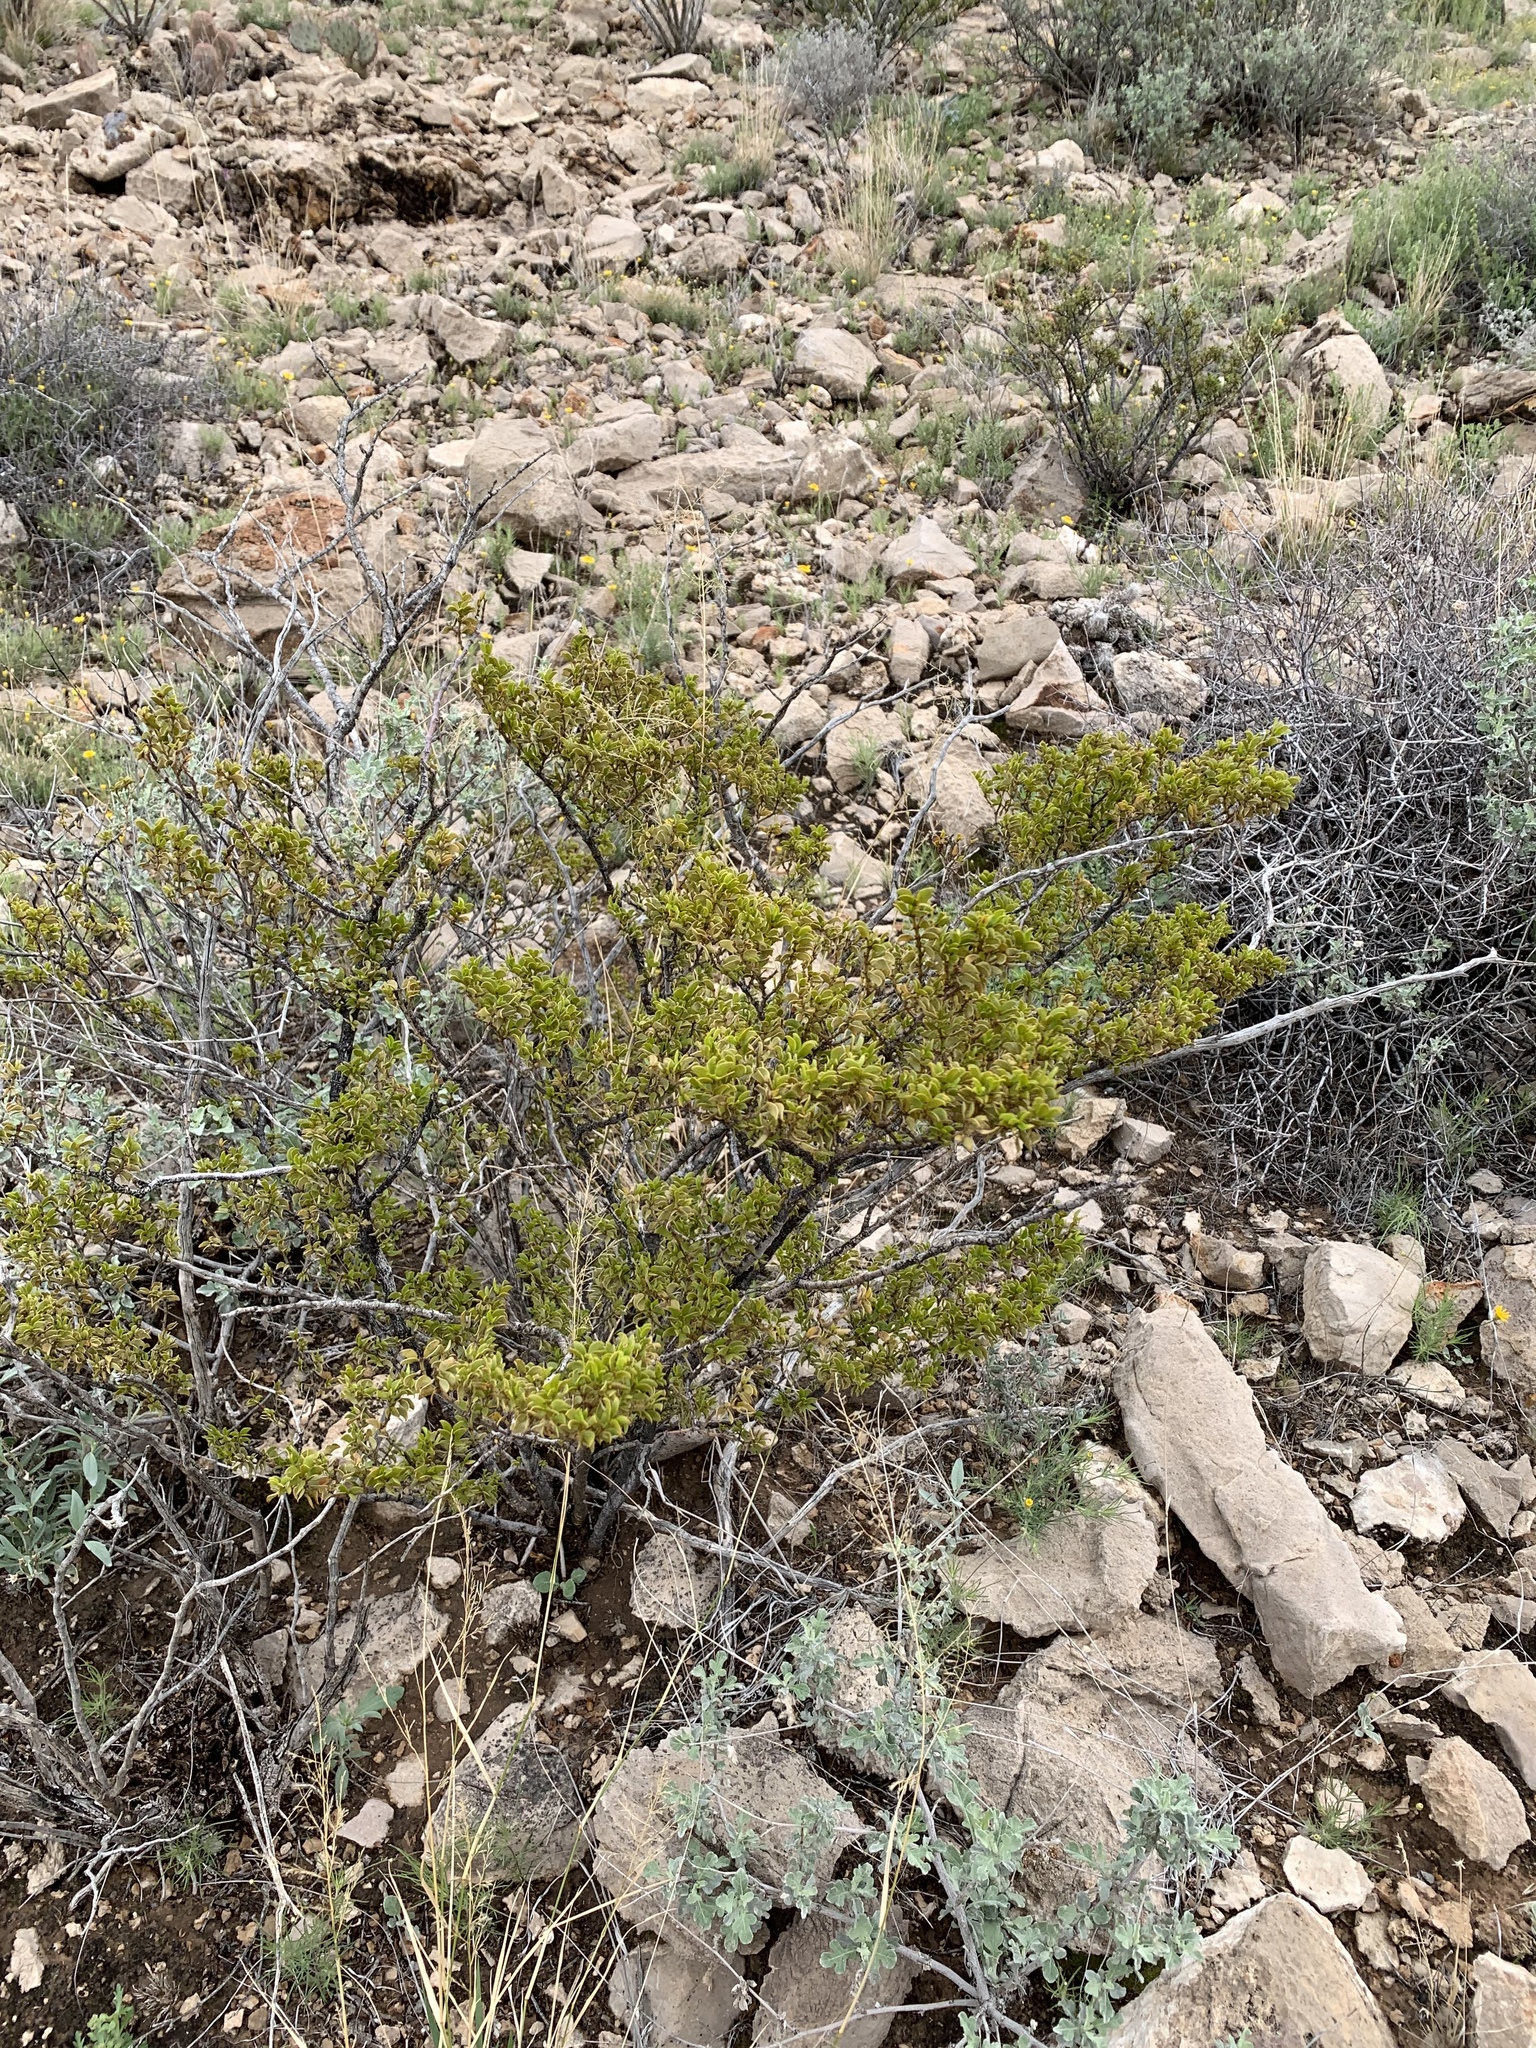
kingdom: Plantae
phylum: Tracheophyta
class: Magnoliopsida
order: Zygophyllales
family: Zygophyllaceae
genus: Larrea
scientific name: Larrea tridentata
